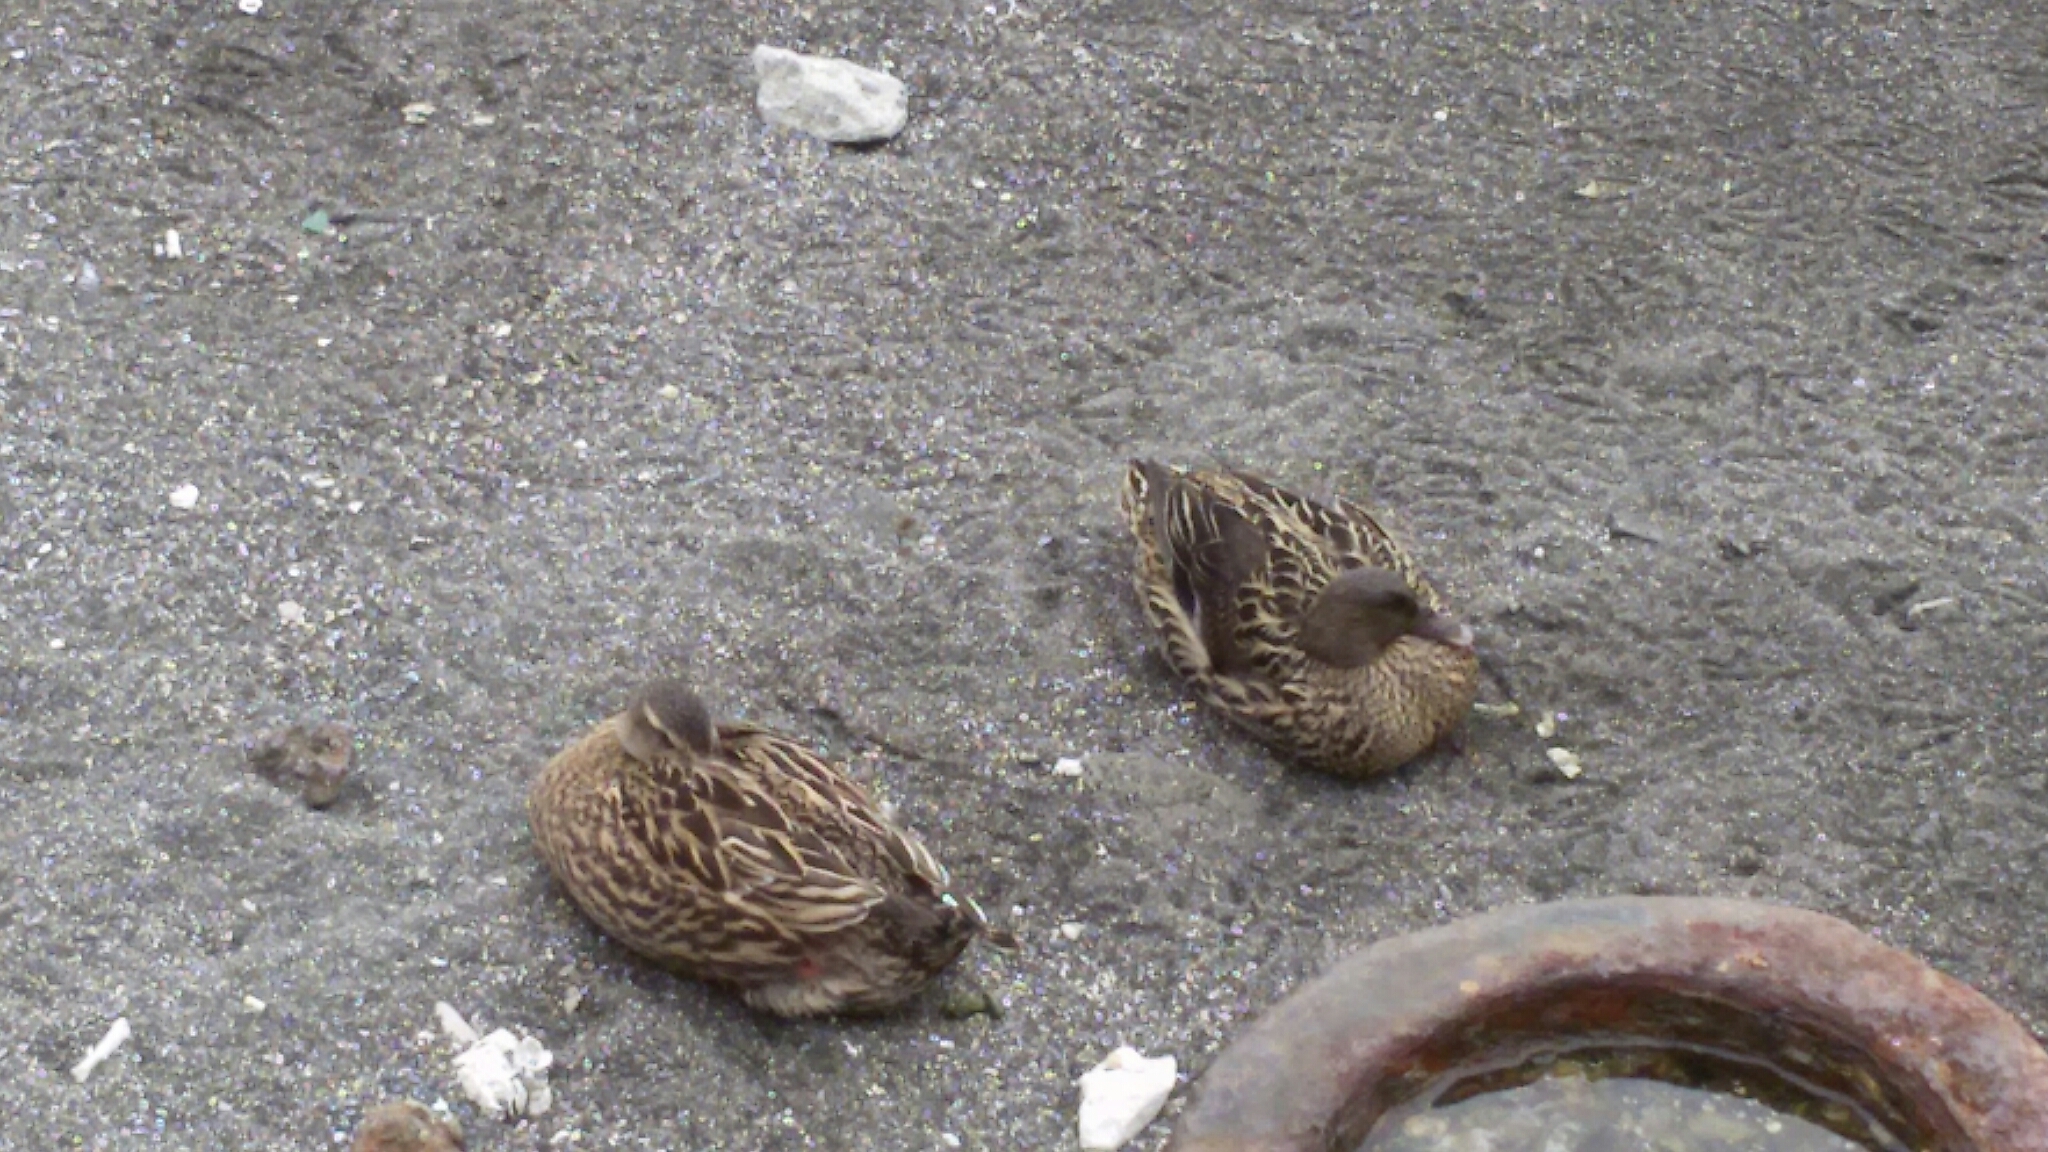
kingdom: Animalia
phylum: Chordata
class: Aves
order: Anseriformes
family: Anatidae
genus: Anas
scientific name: Anas platyrhynchos
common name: Mallard
